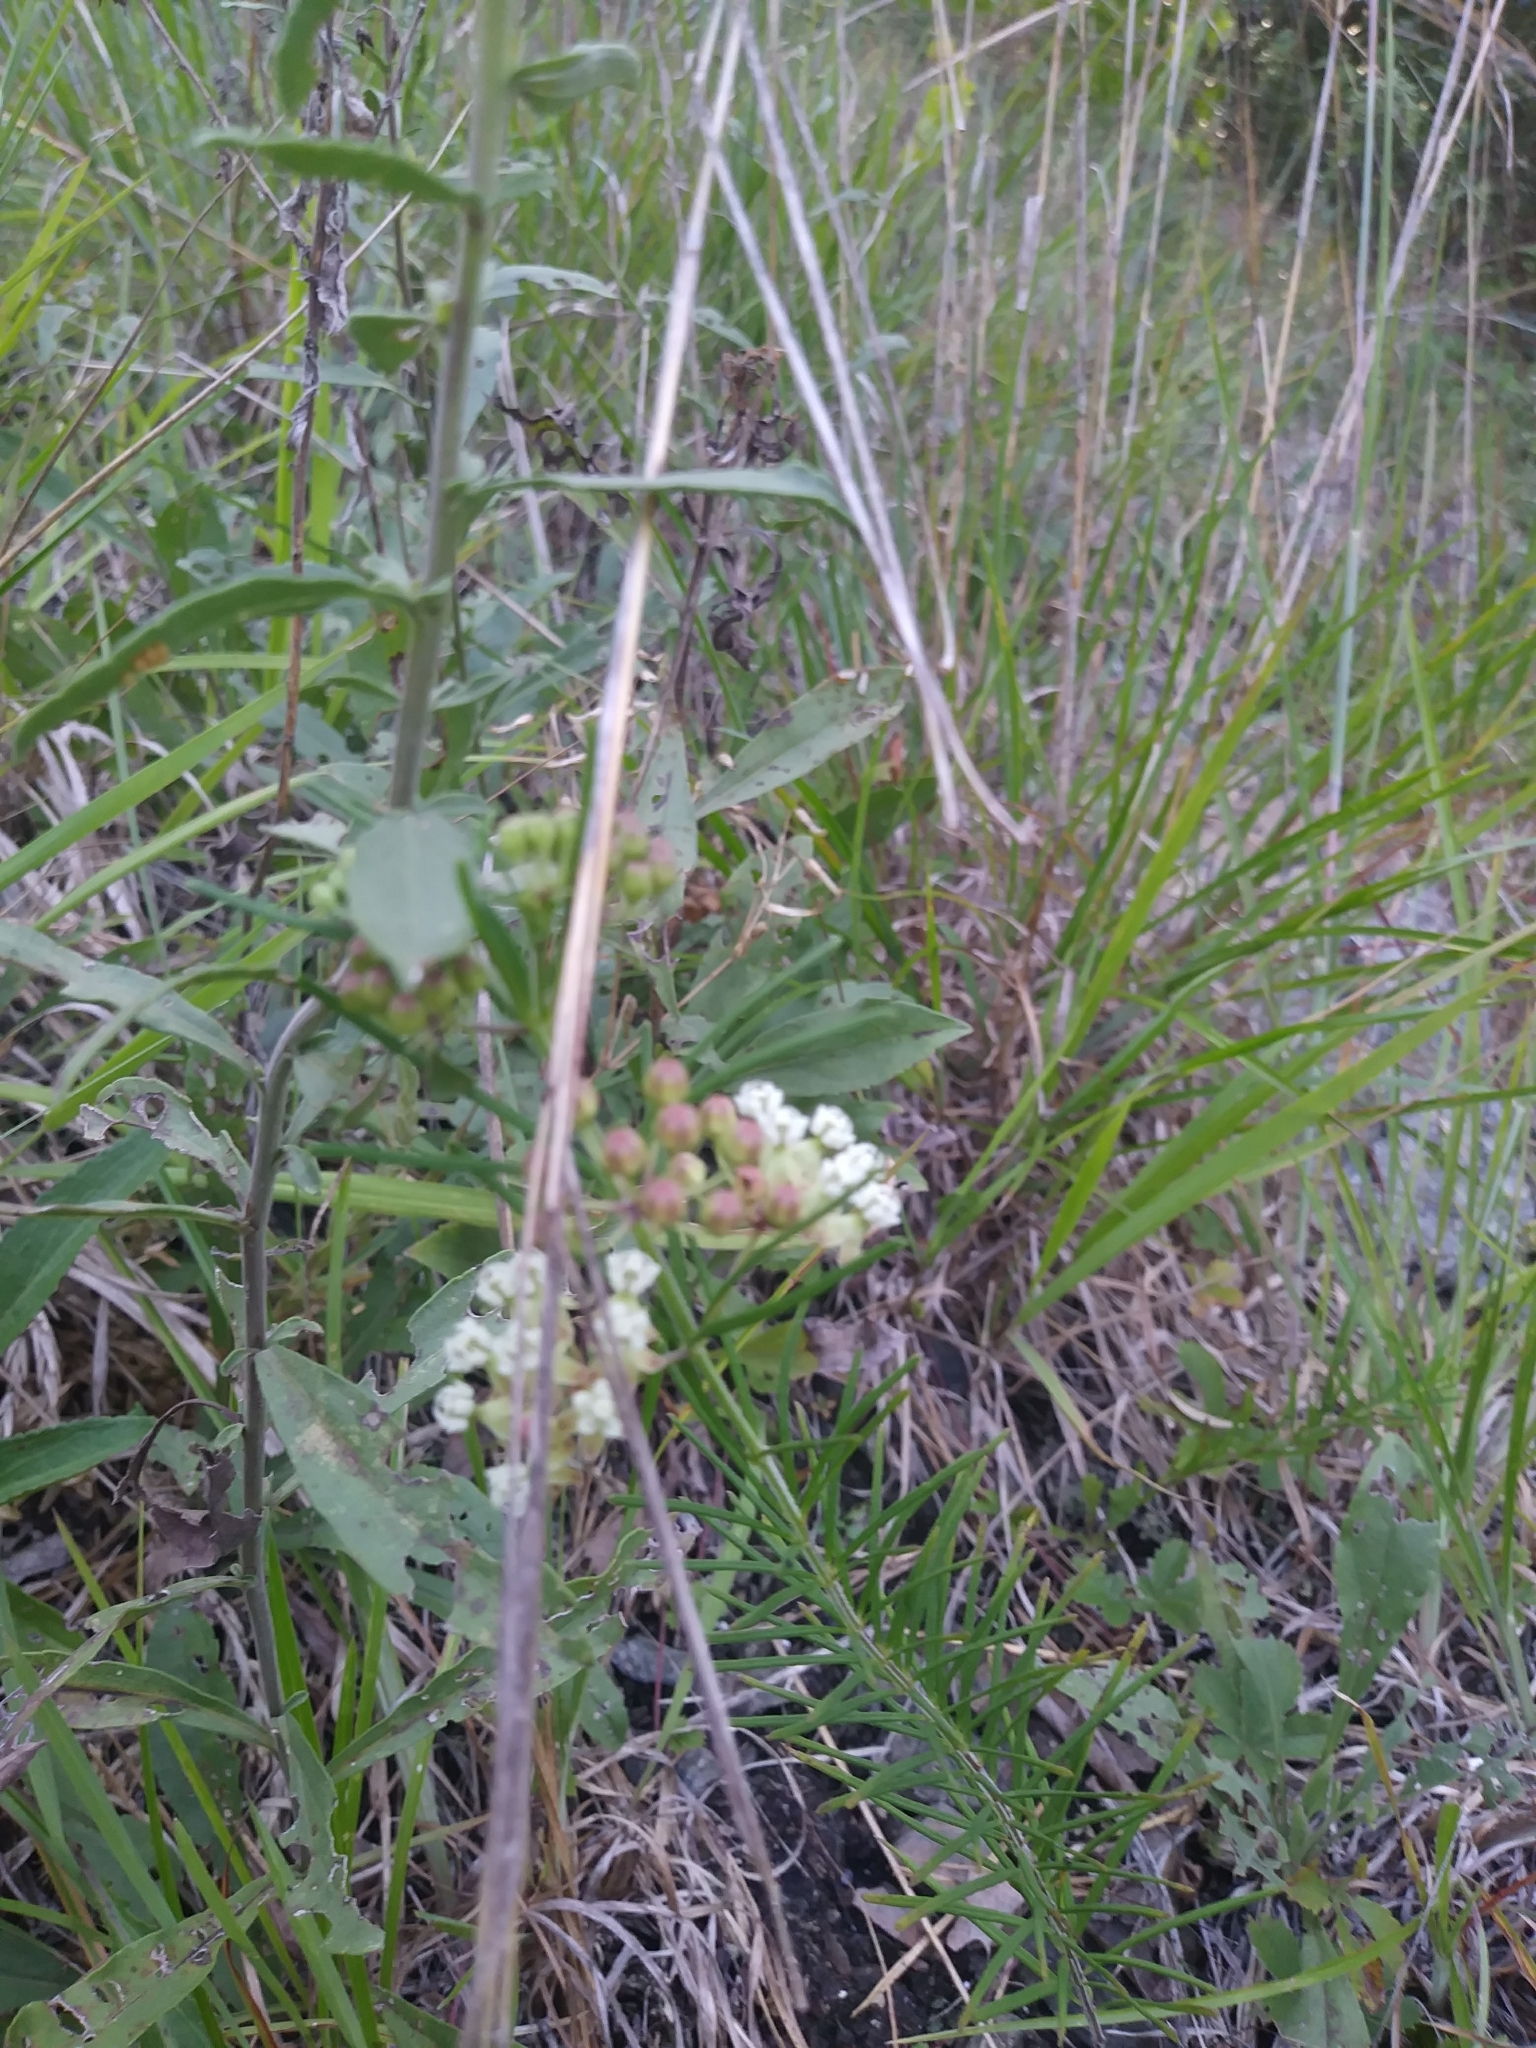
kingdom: Plantae
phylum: Tracheophyta
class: Magnoliopsida
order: Gentianales
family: Apocynaceae
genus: Asclepias
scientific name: Asclepias verticillata
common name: Eastern whorled milkweed
